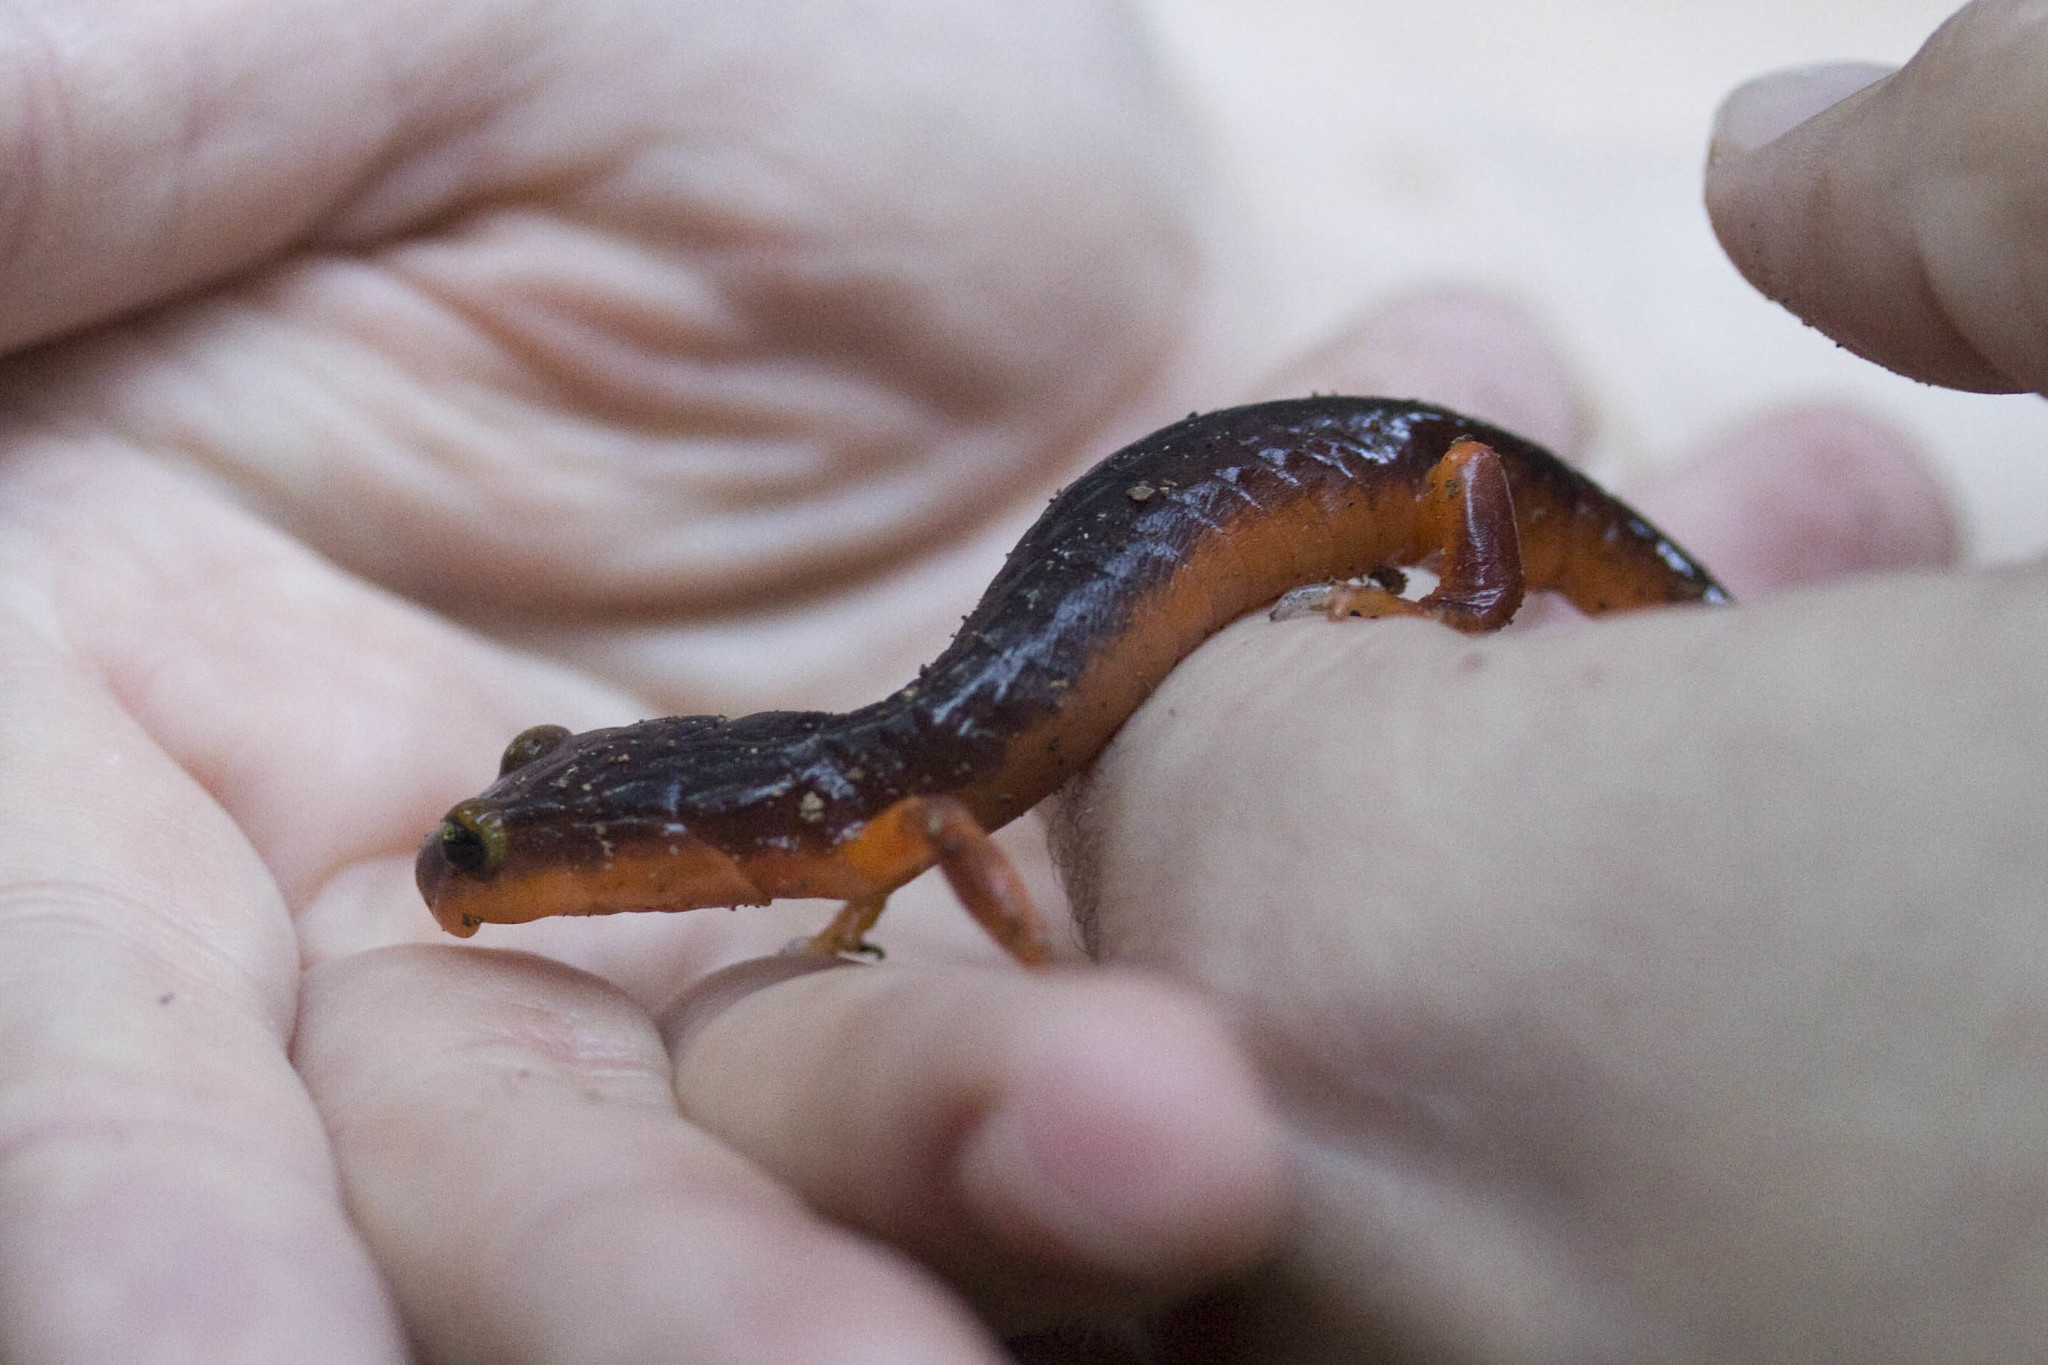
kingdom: Animalia
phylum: Chordata
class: Amphibia
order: Caudata
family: Plethodontidae
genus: Ensatina
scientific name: Ensatina eschscholtzii
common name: Ensatina
